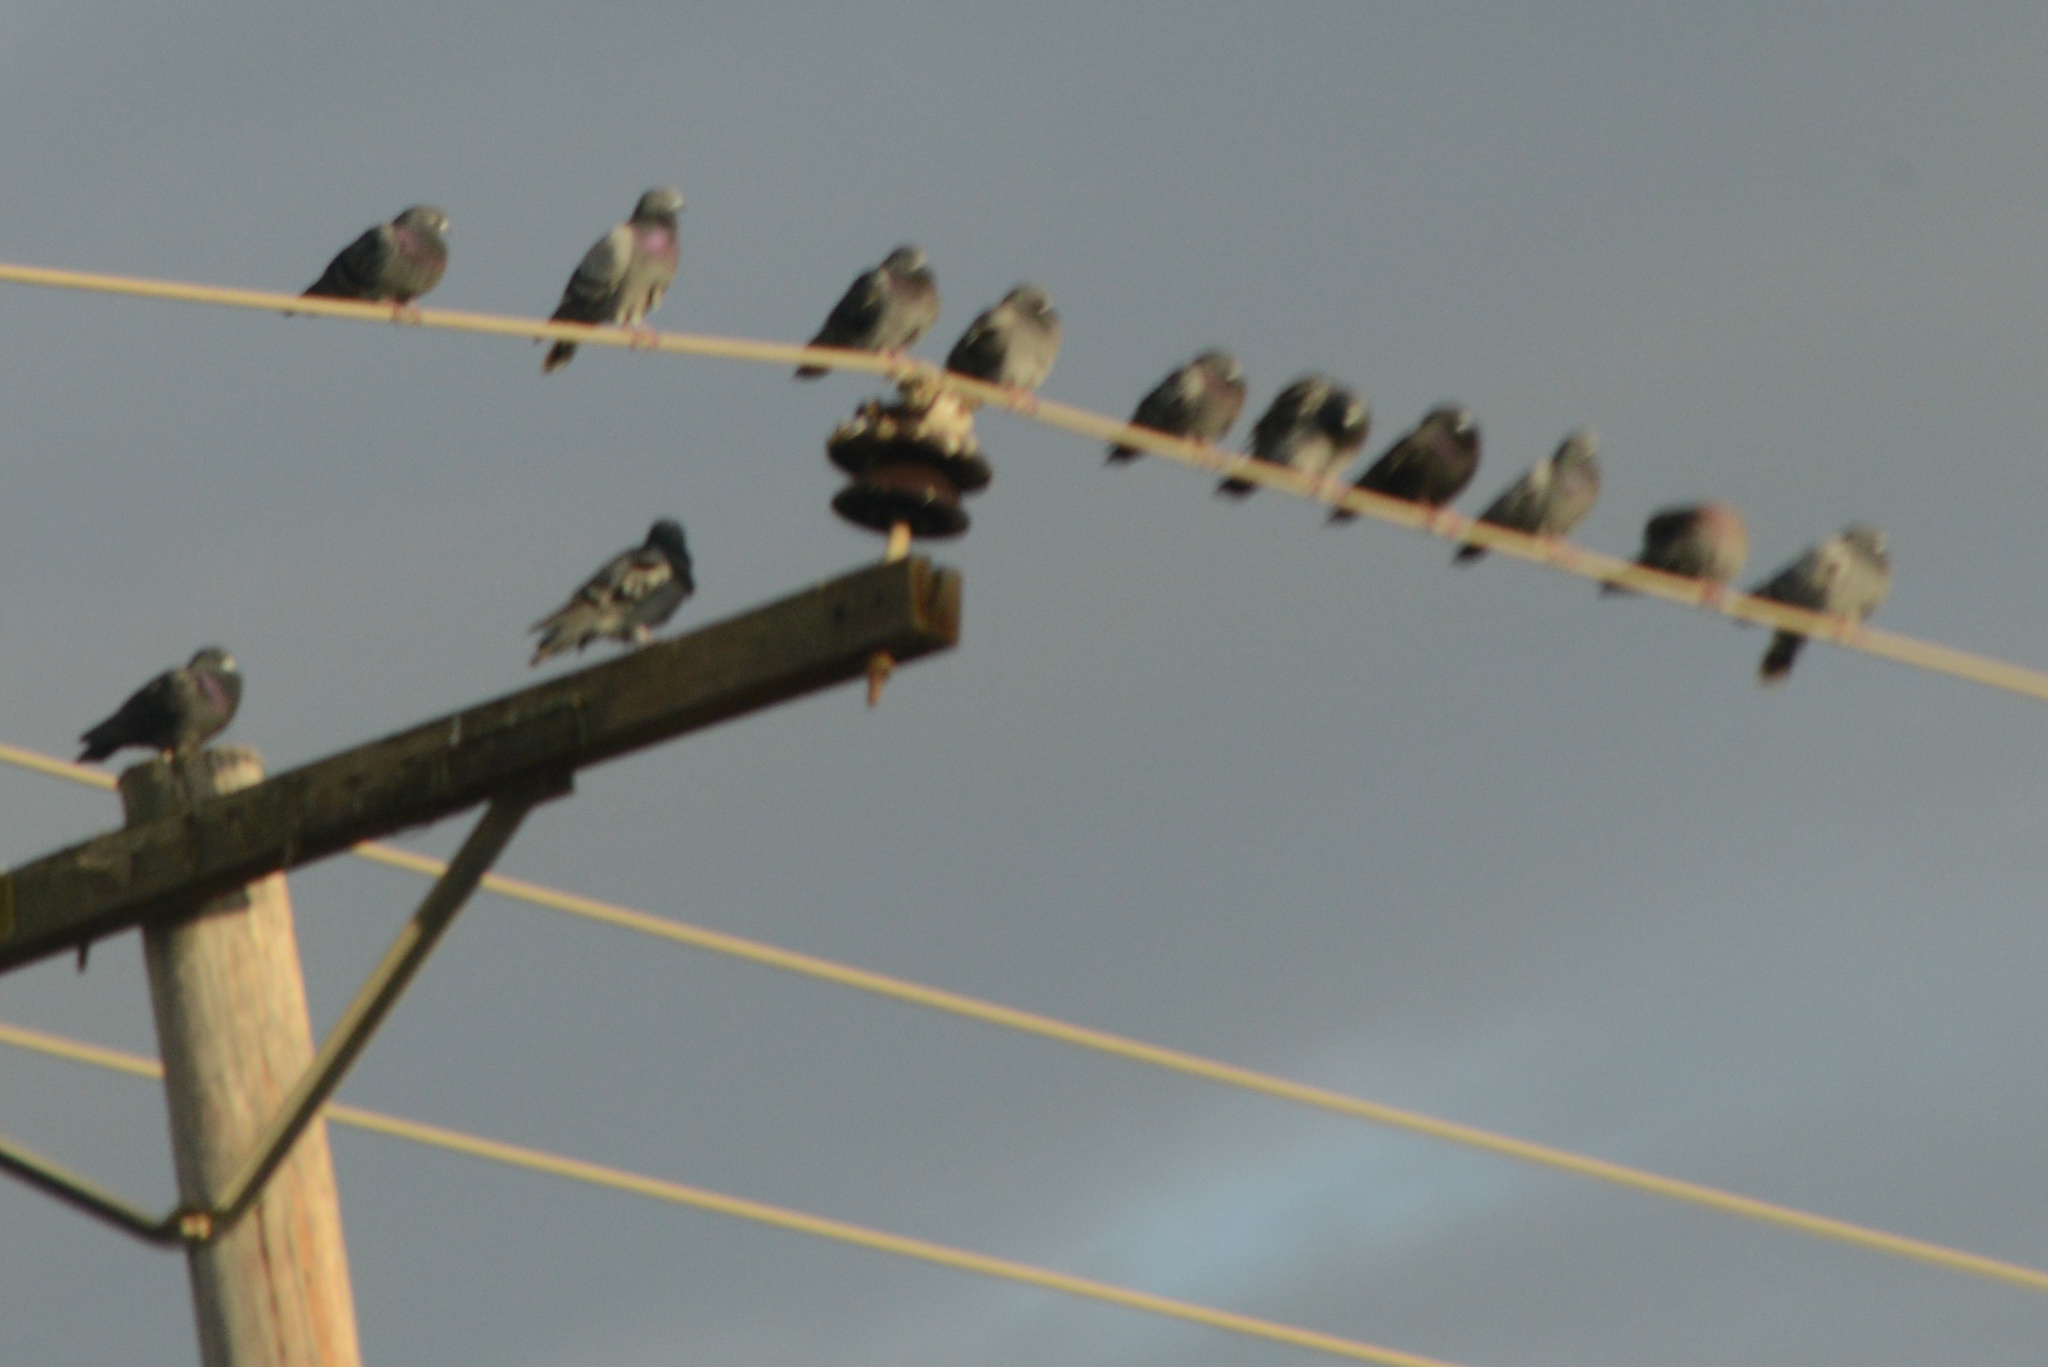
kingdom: Animalia
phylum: Chordata
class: Aves
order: Columbiformes
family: Columbidae
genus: Columba
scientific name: Columba livia
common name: Rock pigeon
